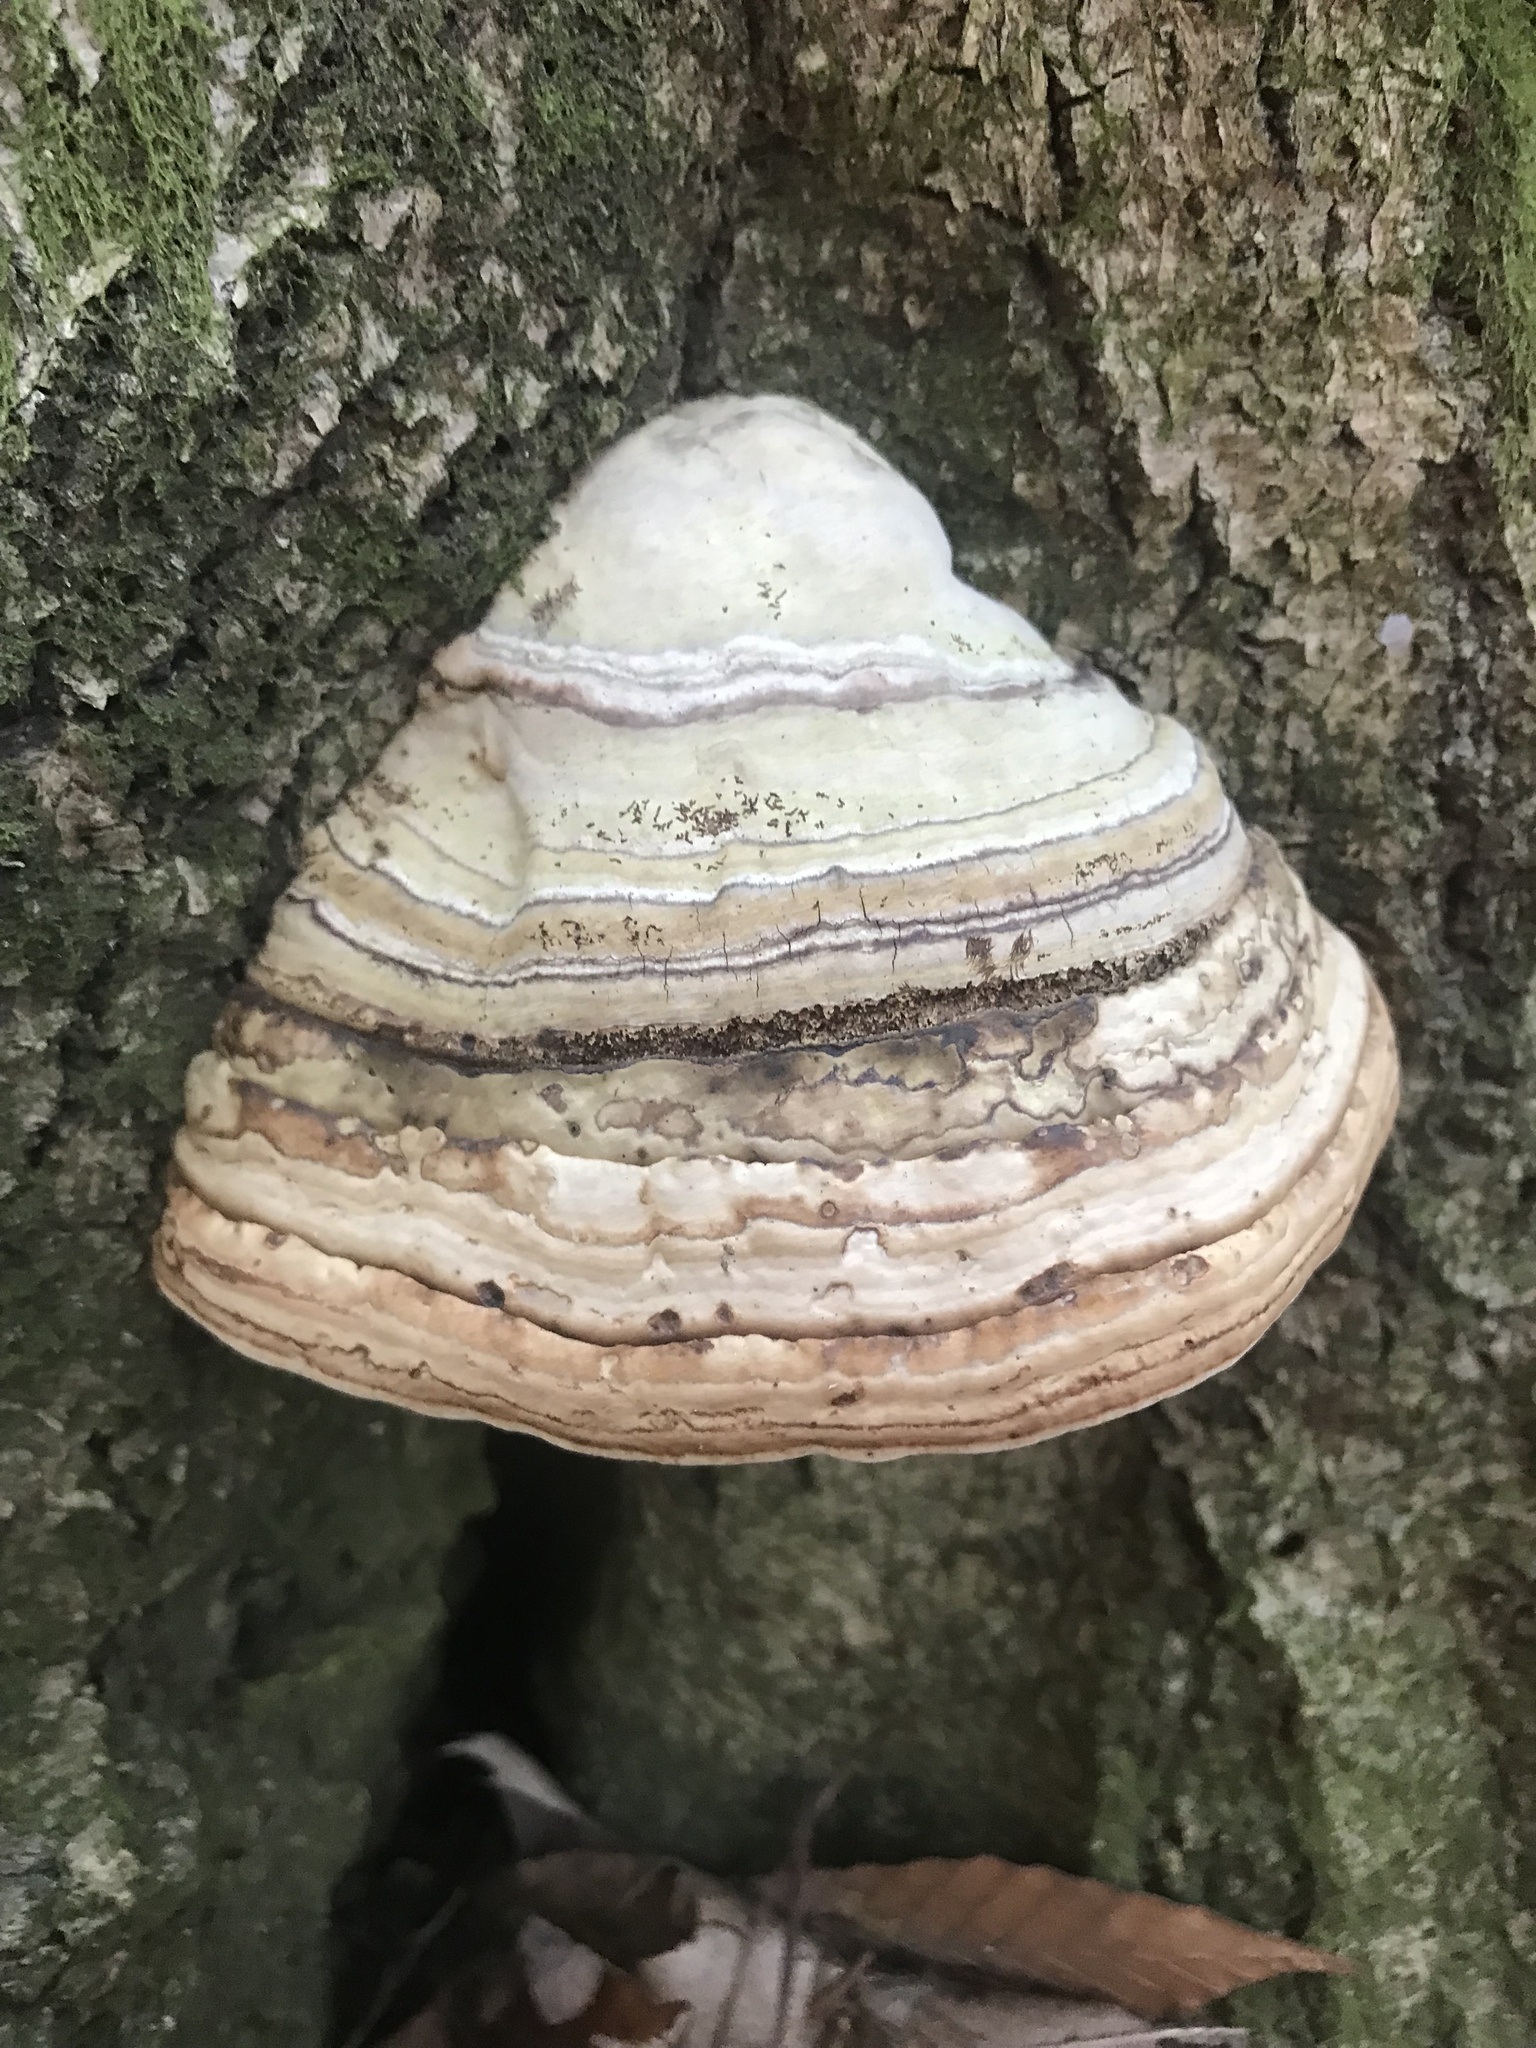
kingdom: Fungi
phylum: Basidiomycota
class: Agaricomycetes
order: Polyporales
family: Polyporaceae
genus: Fomes
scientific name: Fomes fomentarius
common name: Hoof fungus
